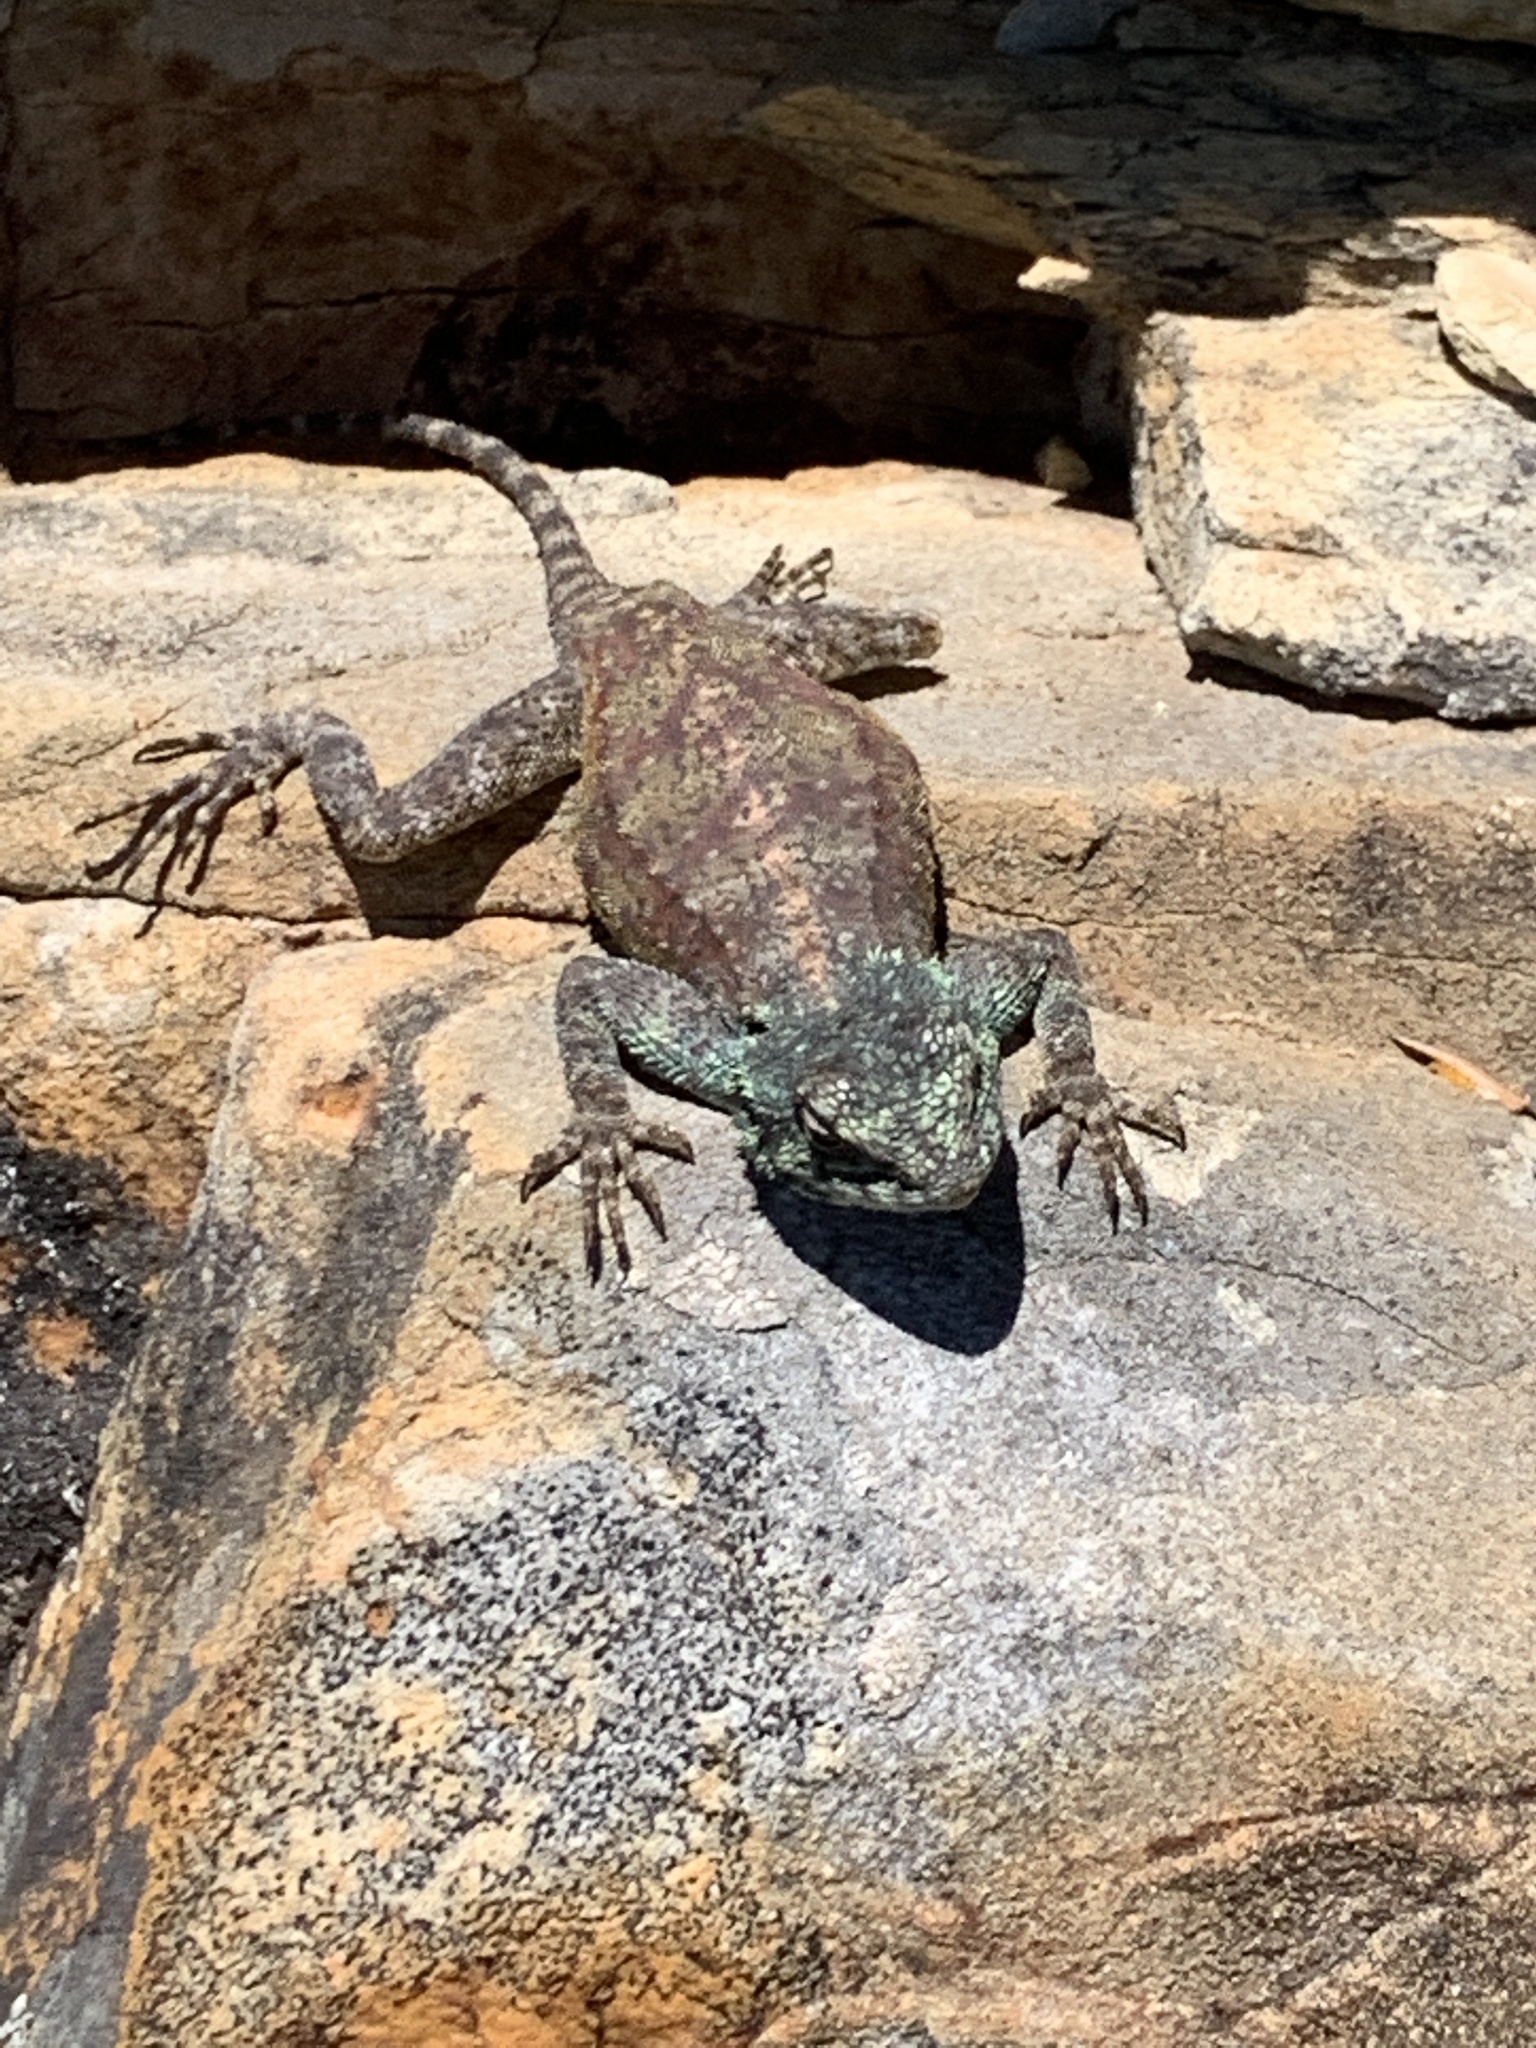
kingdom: Animalia
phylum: Chordata
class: Squamata
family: Agamidae
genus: Agama
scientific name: Agama atra
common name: Southern african rock agama
